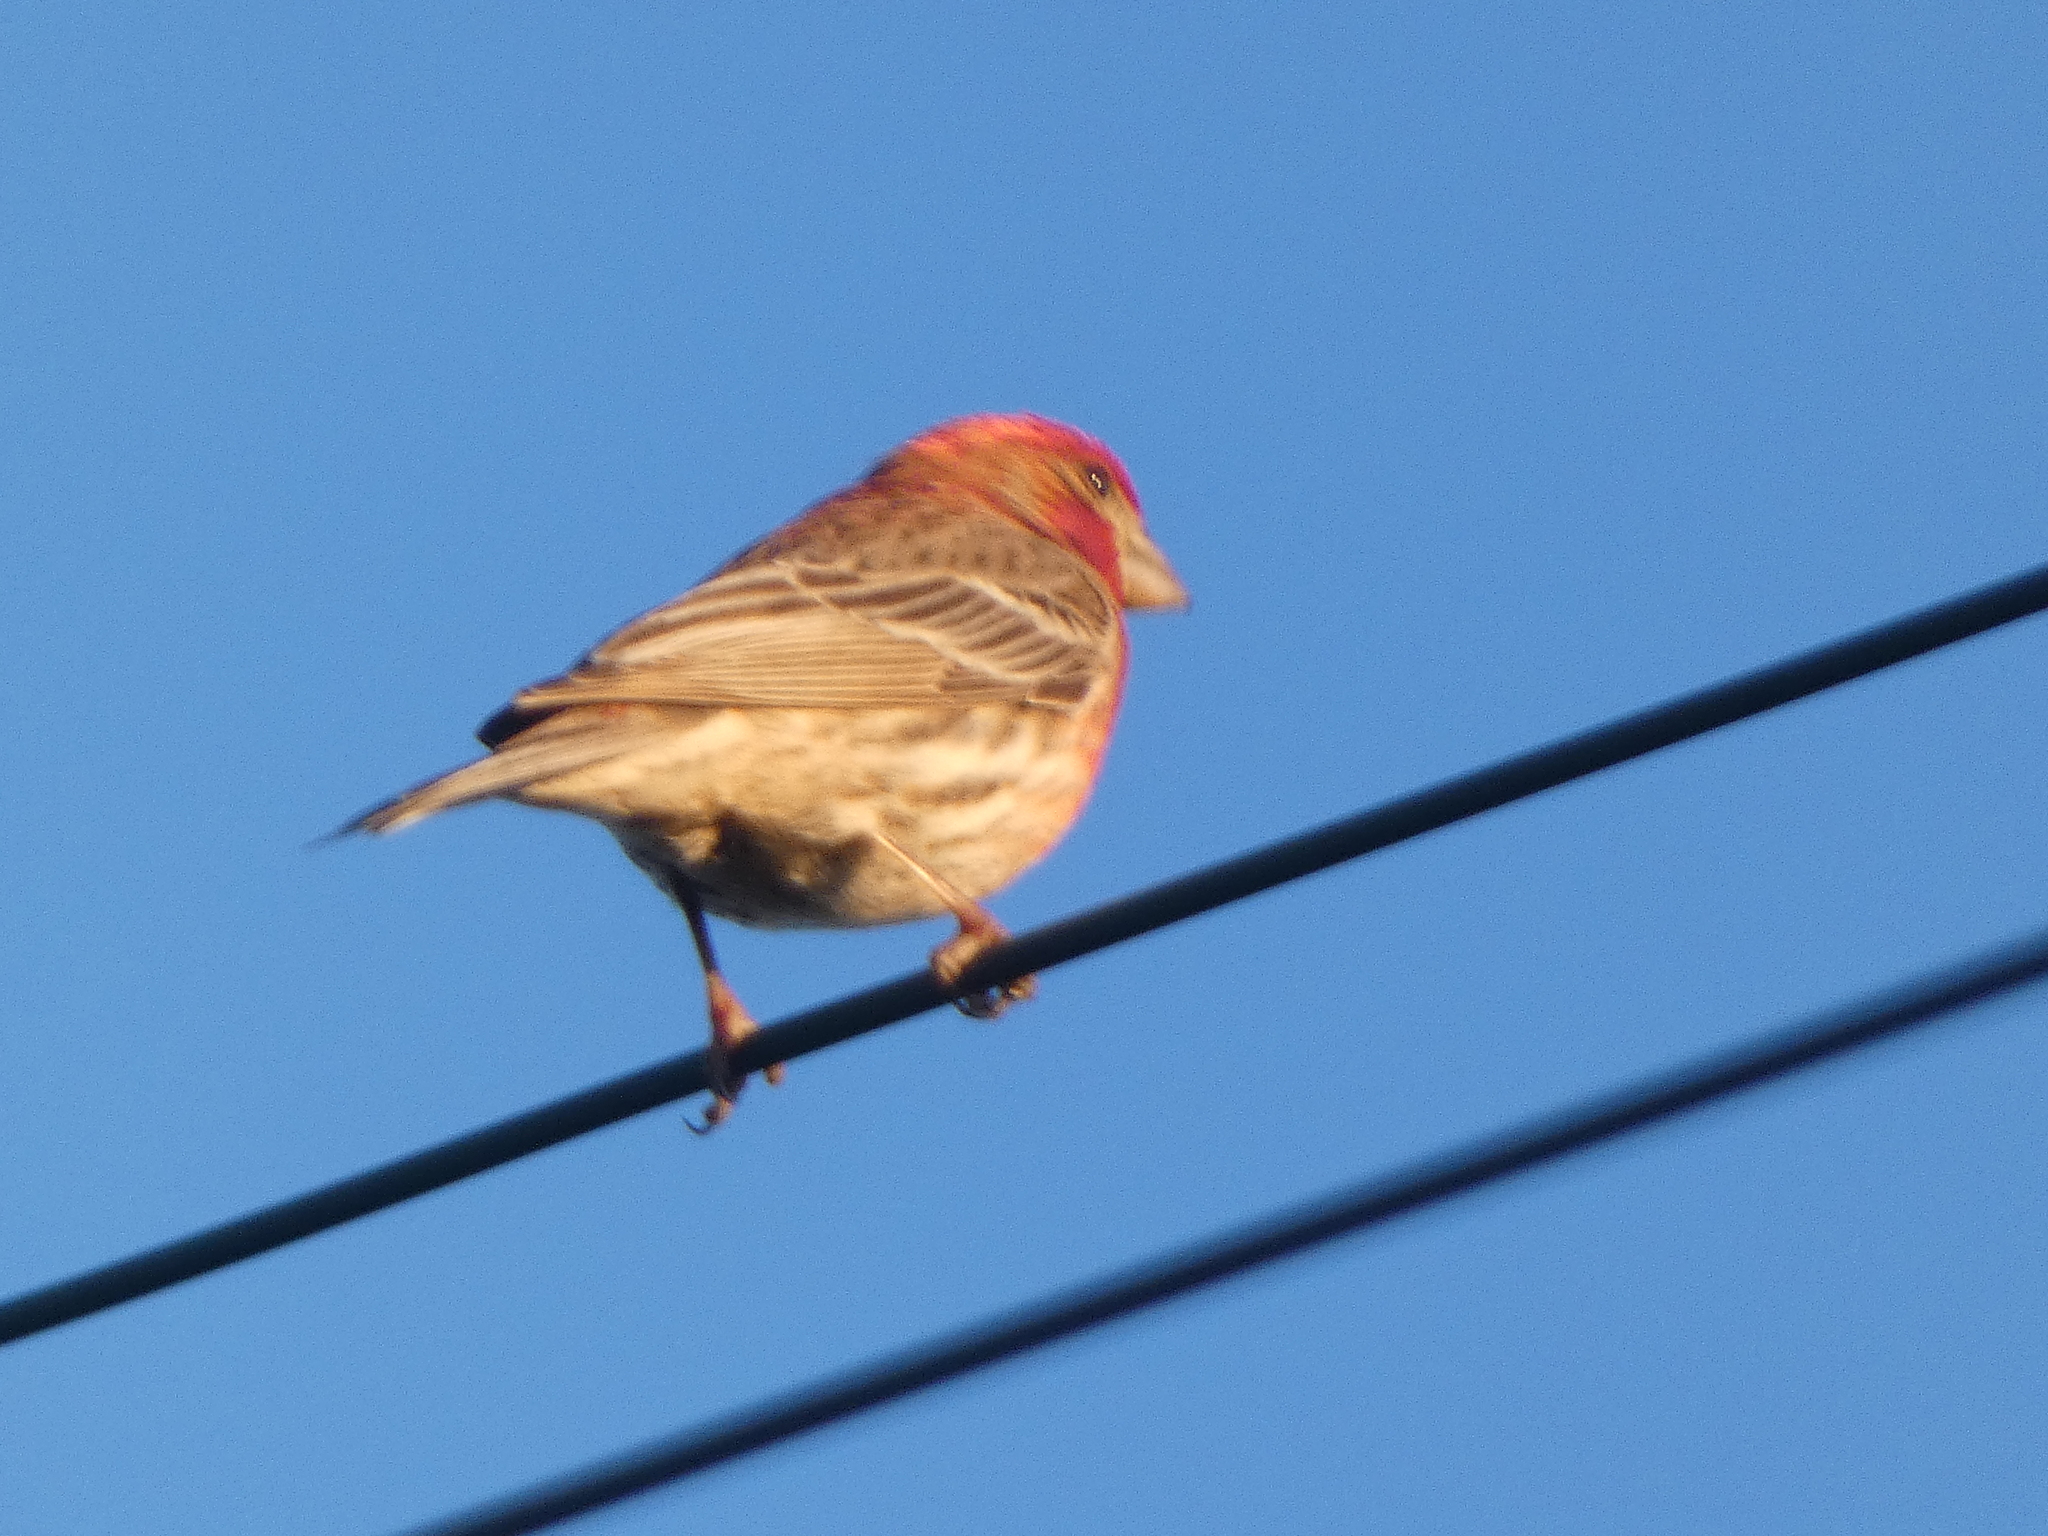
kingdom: Animalia
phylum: Chordata
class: Aves
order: Passeriformes
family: Fringillidae
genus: Haemorhous
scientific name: Haemorhous mexicanus
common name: House finch
